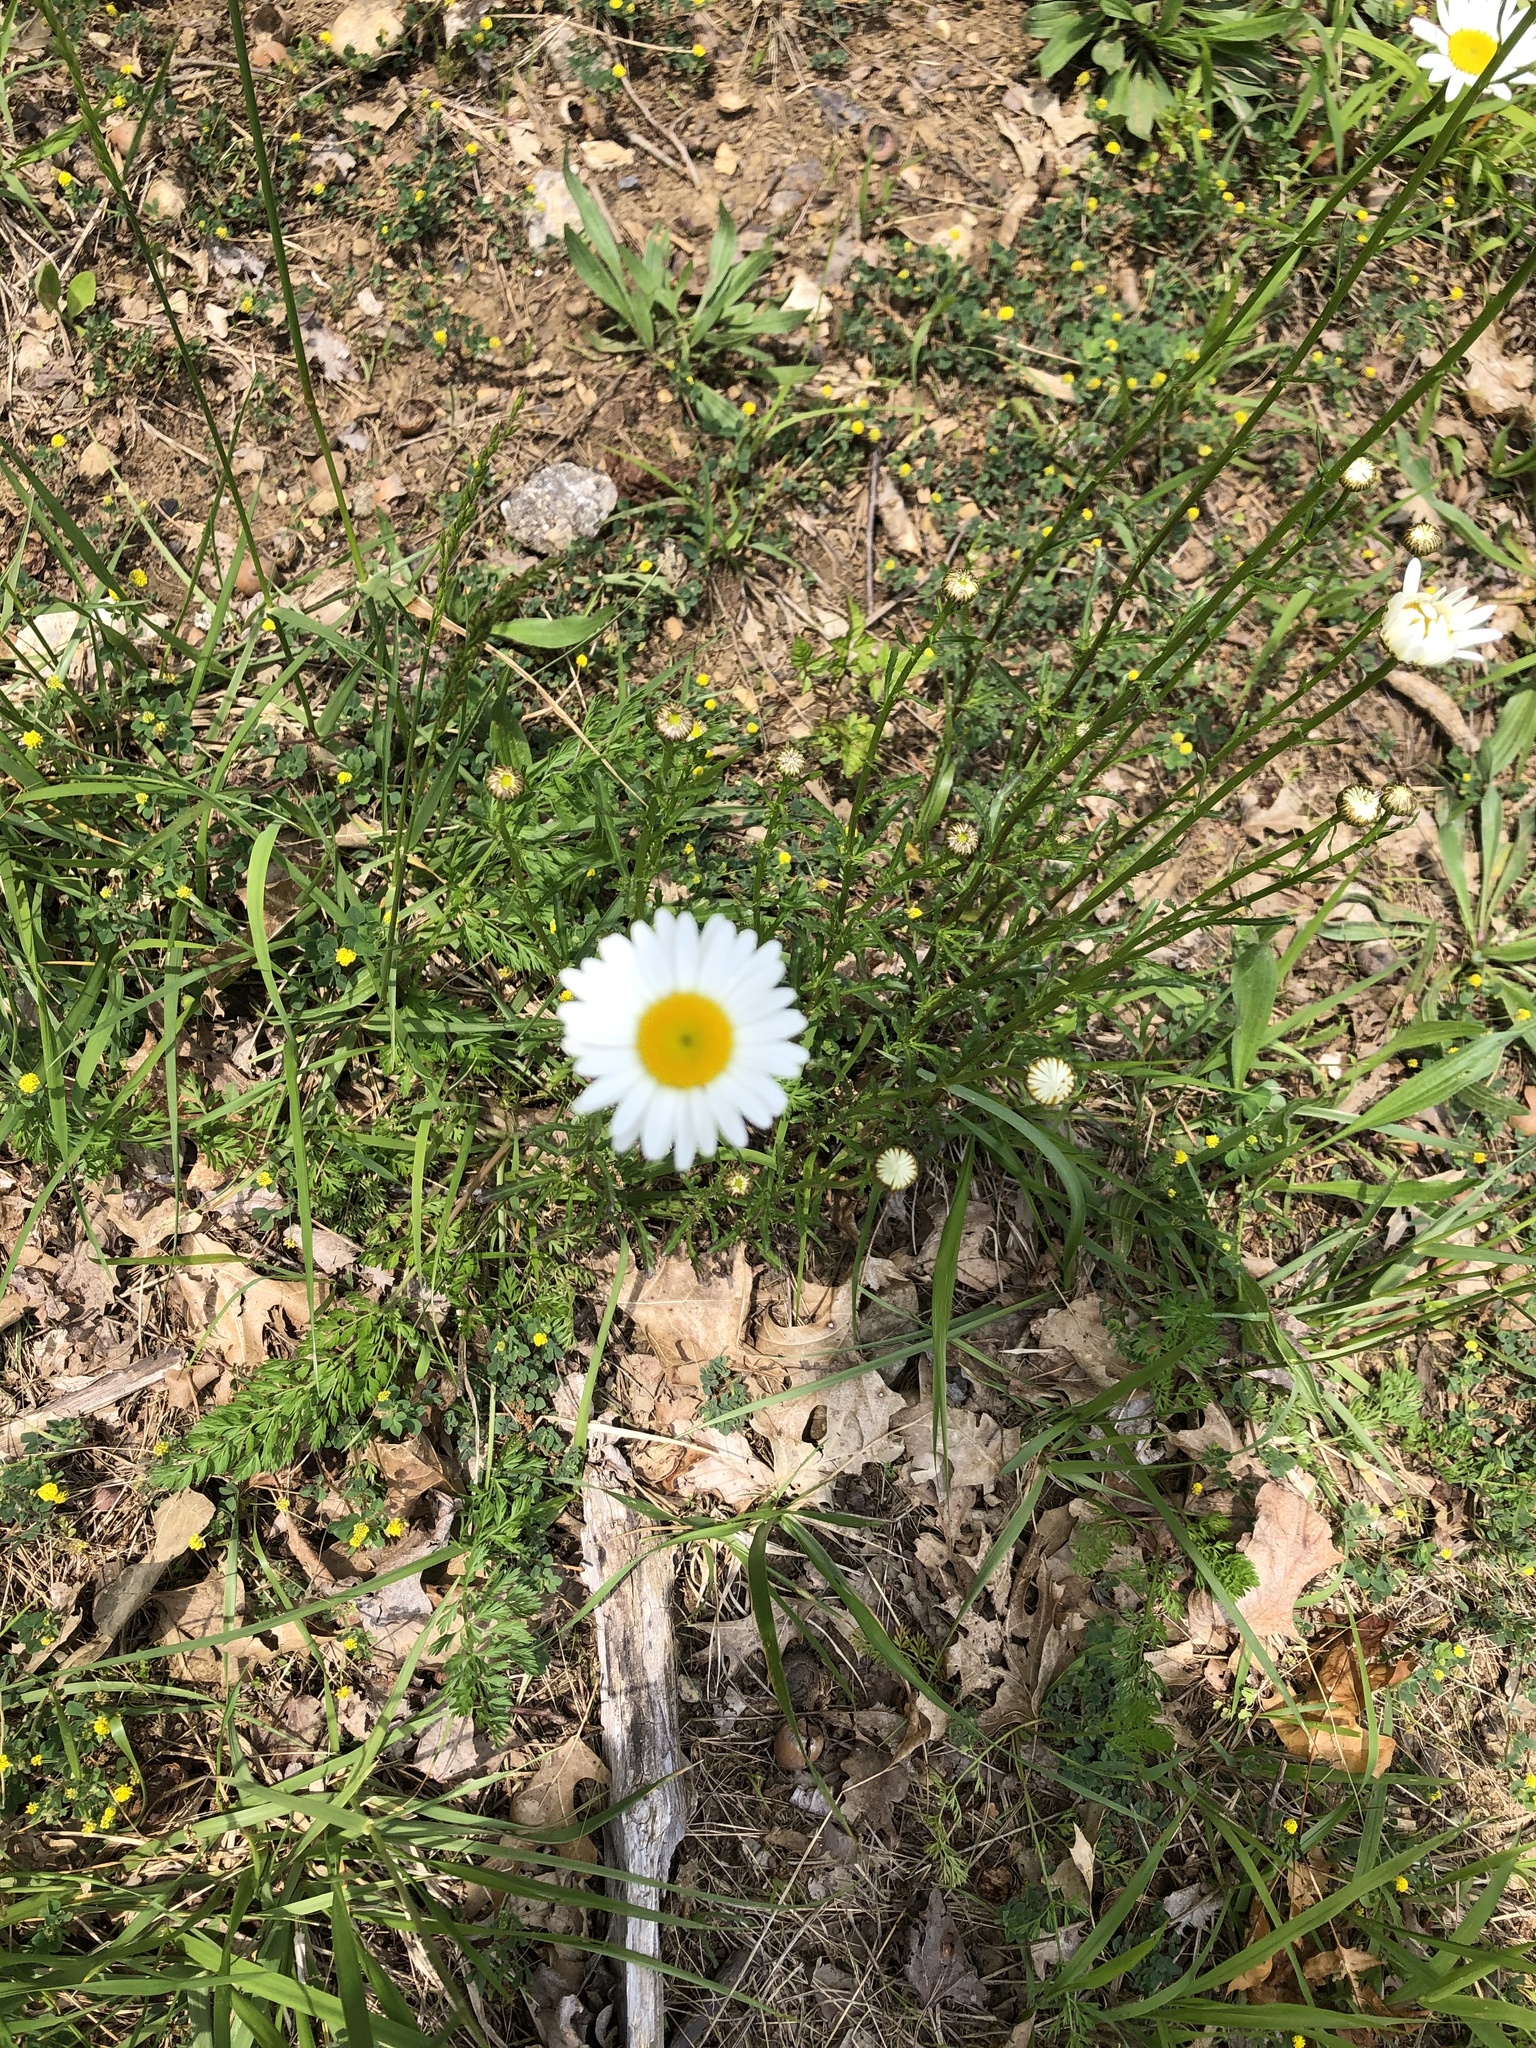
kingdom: Plantae
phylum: Tracheophyta
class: Magnoliopsida
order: Asterales
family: Asteraceae
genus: Leucanthemum
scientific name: Leucanthemum vulgare
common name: Oxeye daisy
